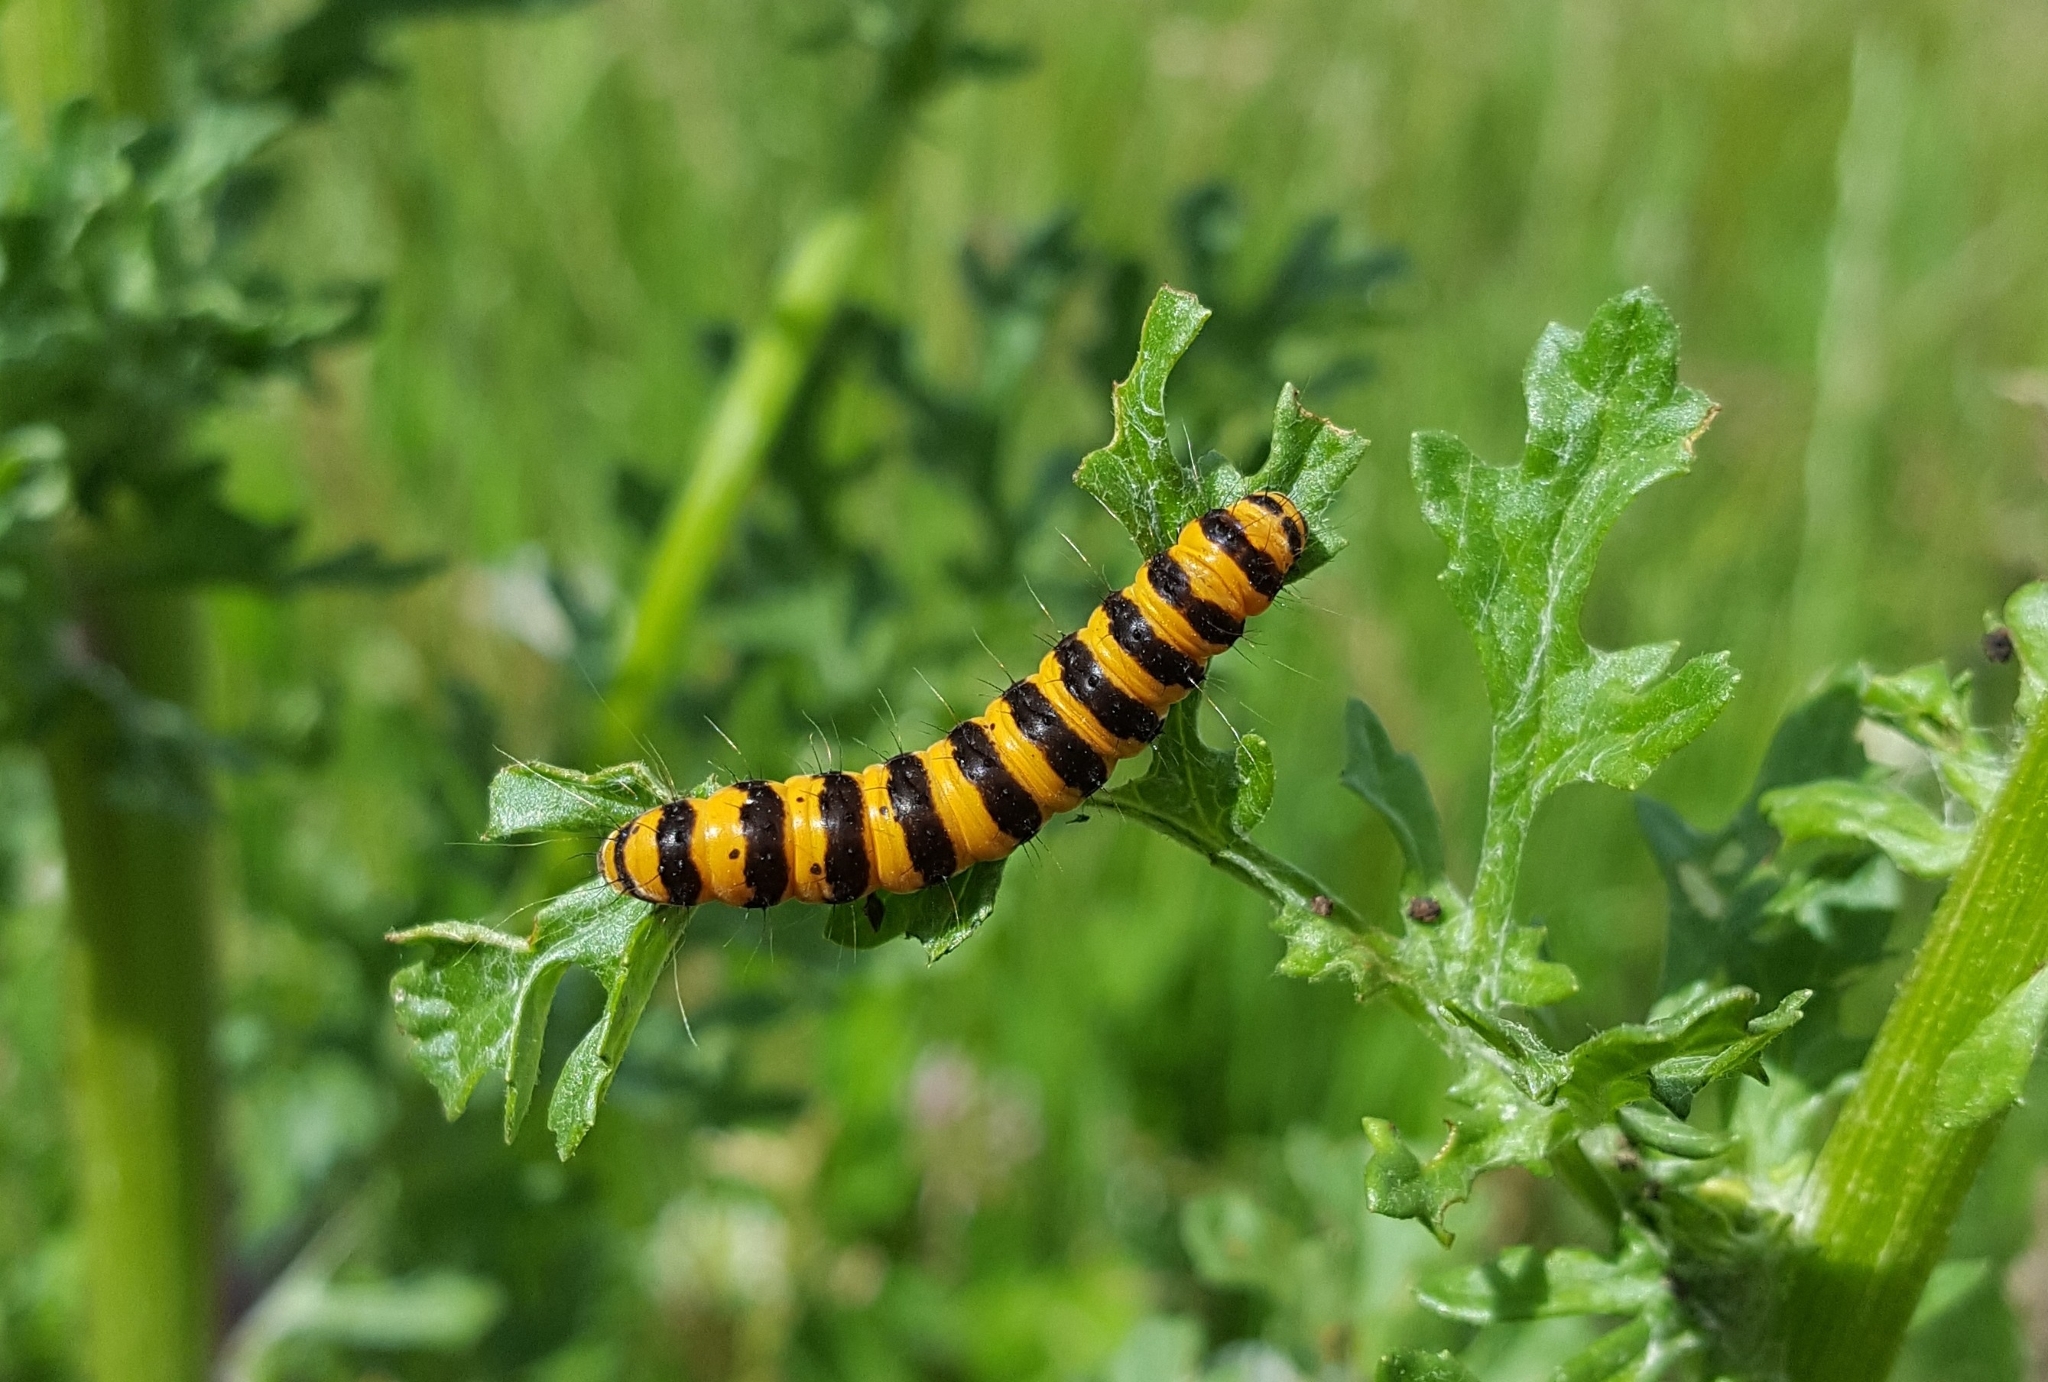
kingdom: Animalia
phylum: Arthropoda
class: Insecta
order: Lepidoptera
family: Erebidae
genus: Tyria
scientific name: Tyria jacobaeae
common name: Cinnabar
